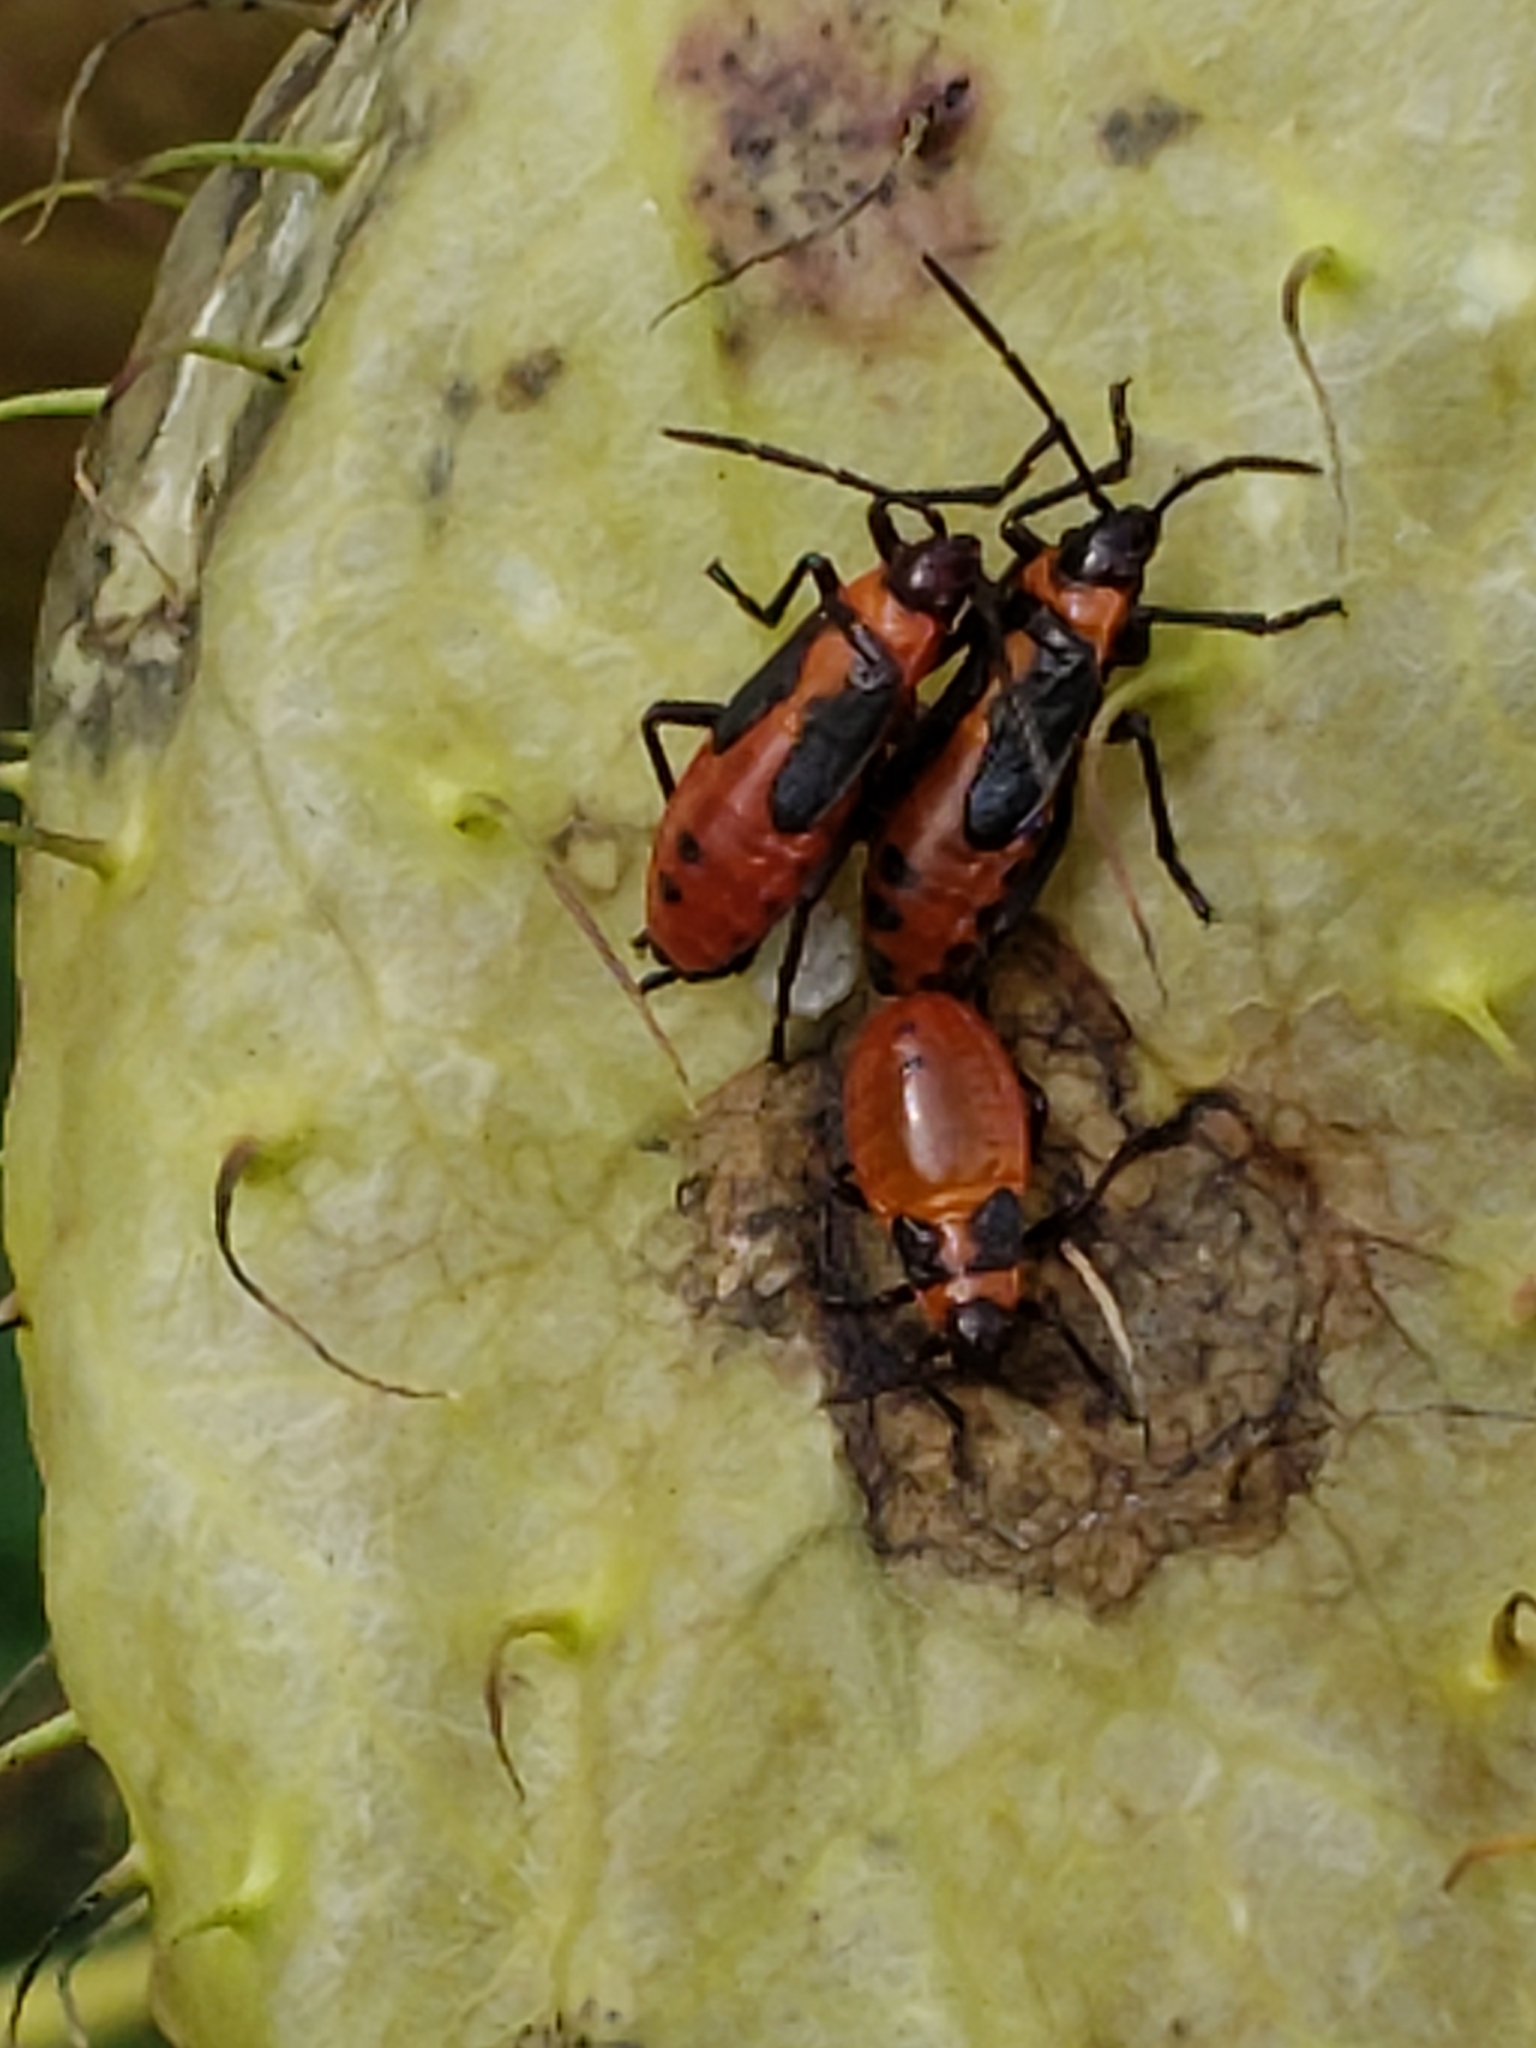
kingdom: Animalia
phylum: Arthropoda
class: Insecta
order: Hemiptera
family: Lygaeidae
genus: Oncopeltus
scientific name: Oncopeltus fasciatus
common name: Large milkweed bug
